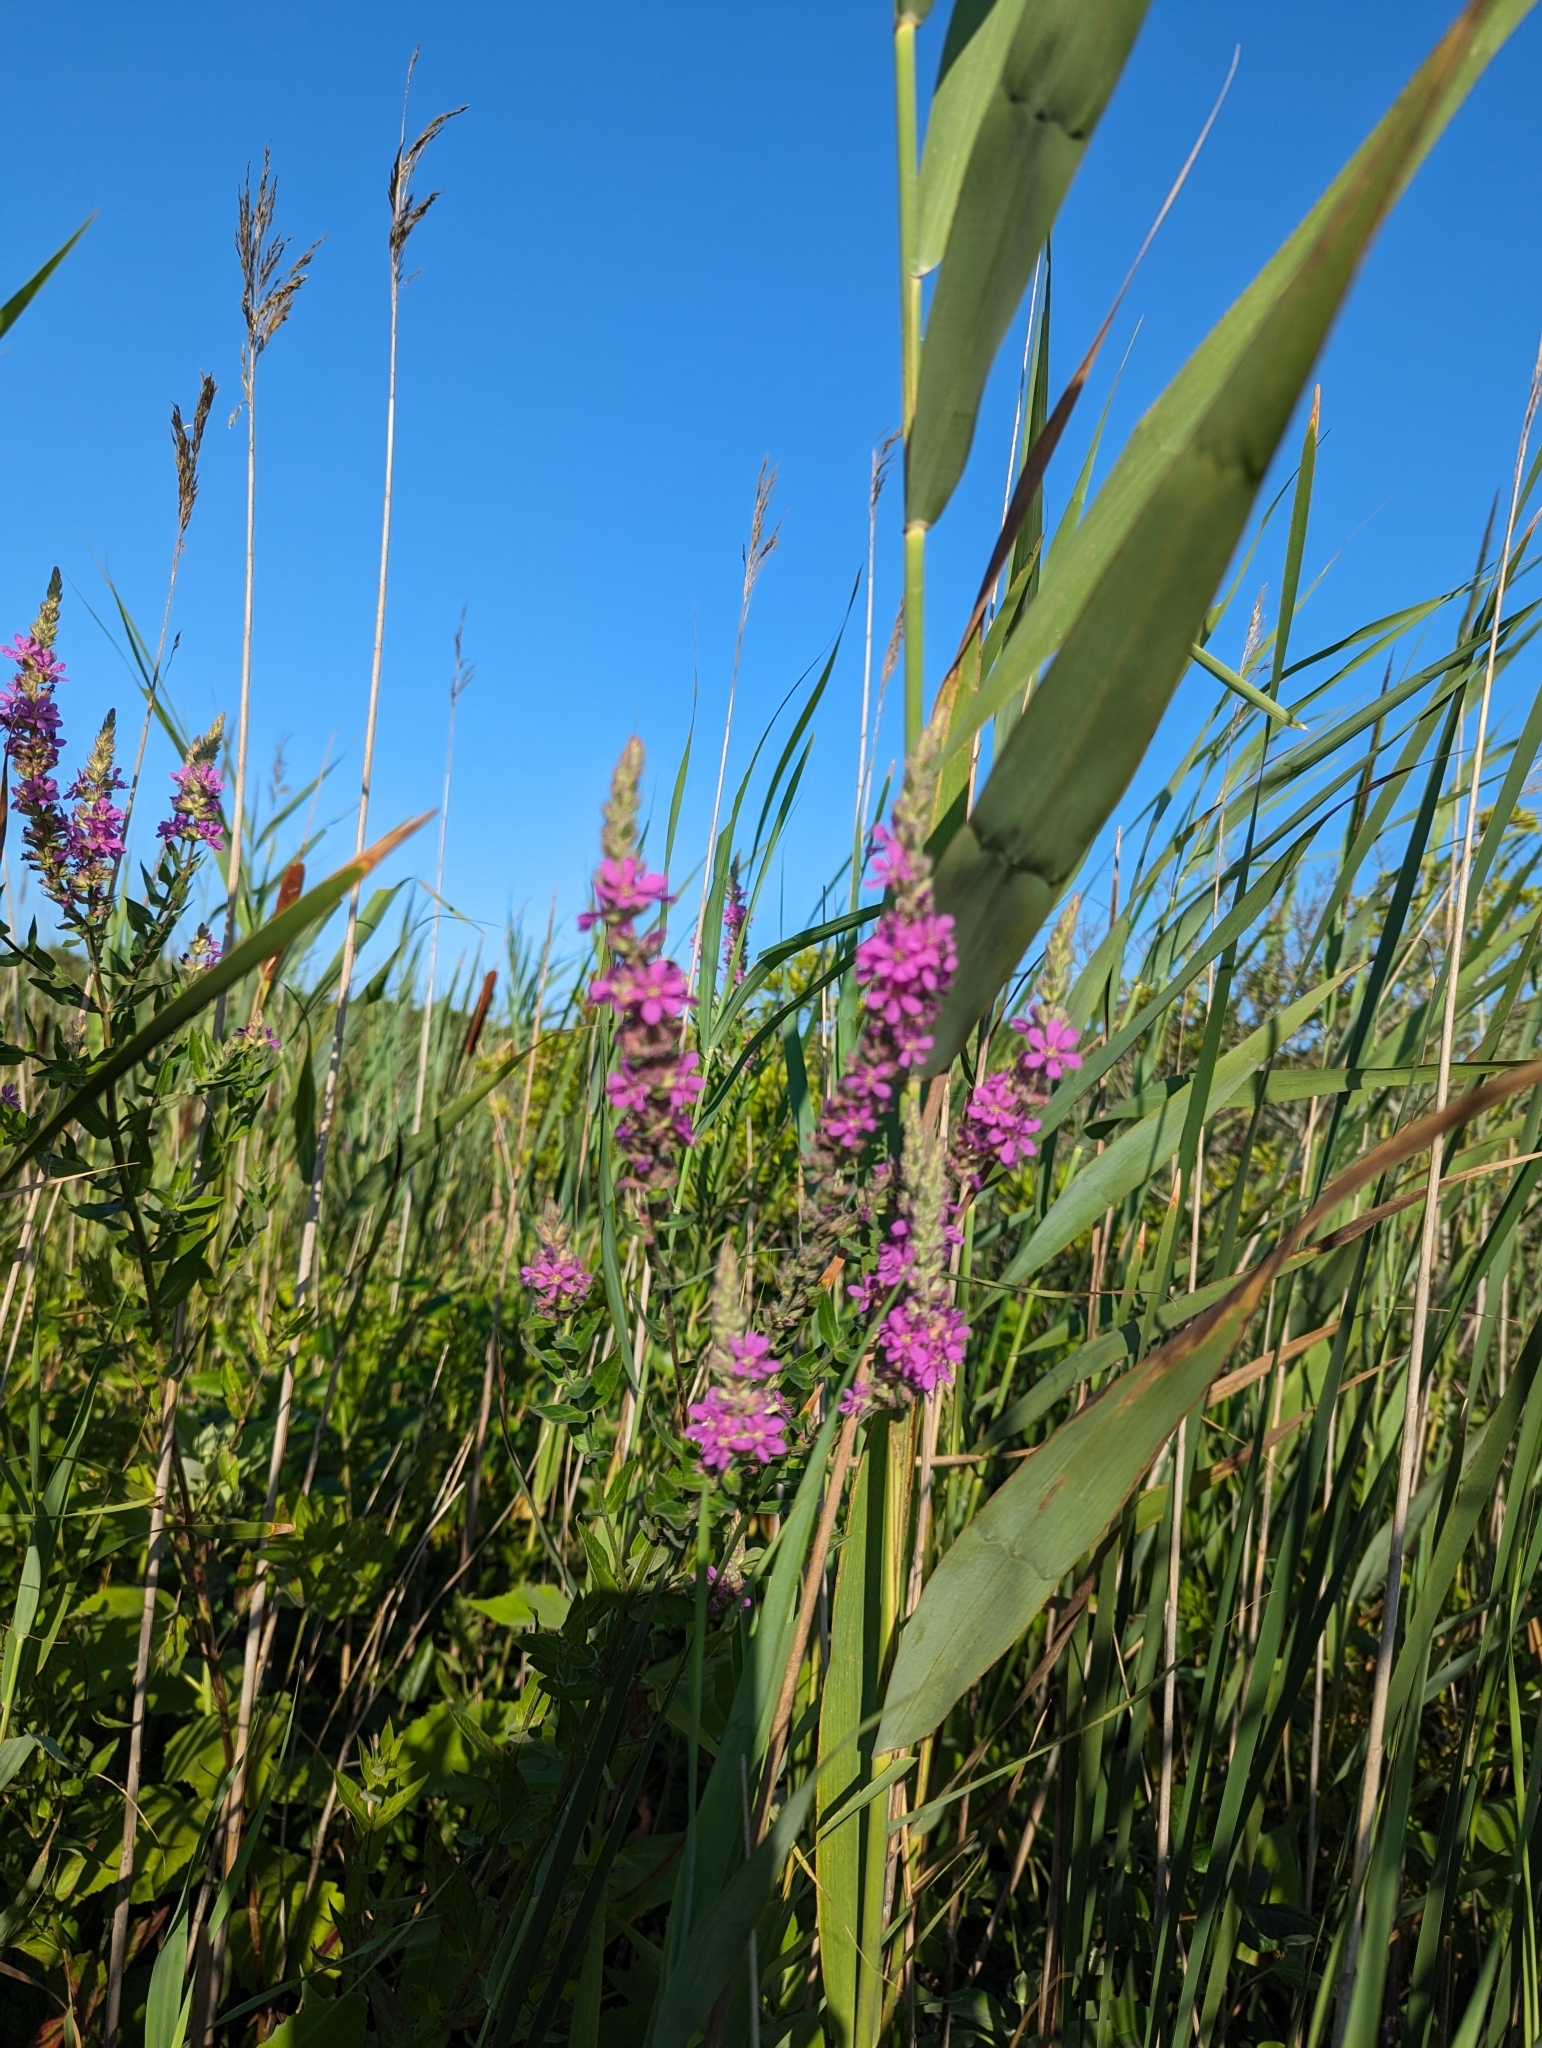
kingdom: Plantae
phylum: Tracheophyta
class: Magnoliopsida
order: Myrtales
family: Lythraceae
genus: Lythrum
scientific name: Lythrum salicaria
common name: Purple loosestrife
